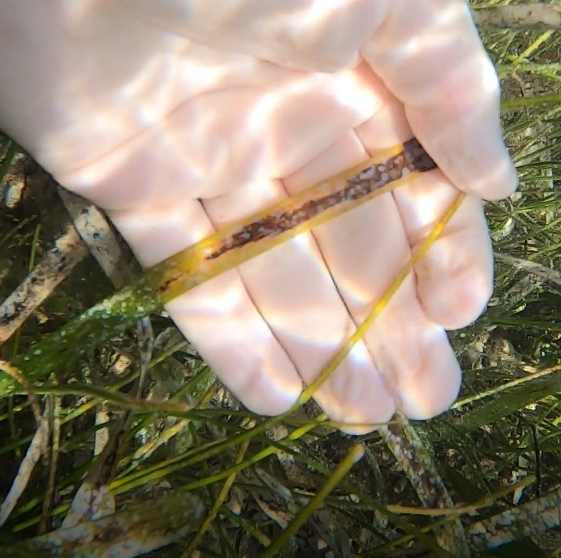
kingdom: Plantae
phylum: Tracheophyta
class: Liliopsida
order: Alismatales
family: Hydrocharitaceae
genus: Thalassia
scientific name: Thalassia testudinum
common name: Species code: tt
